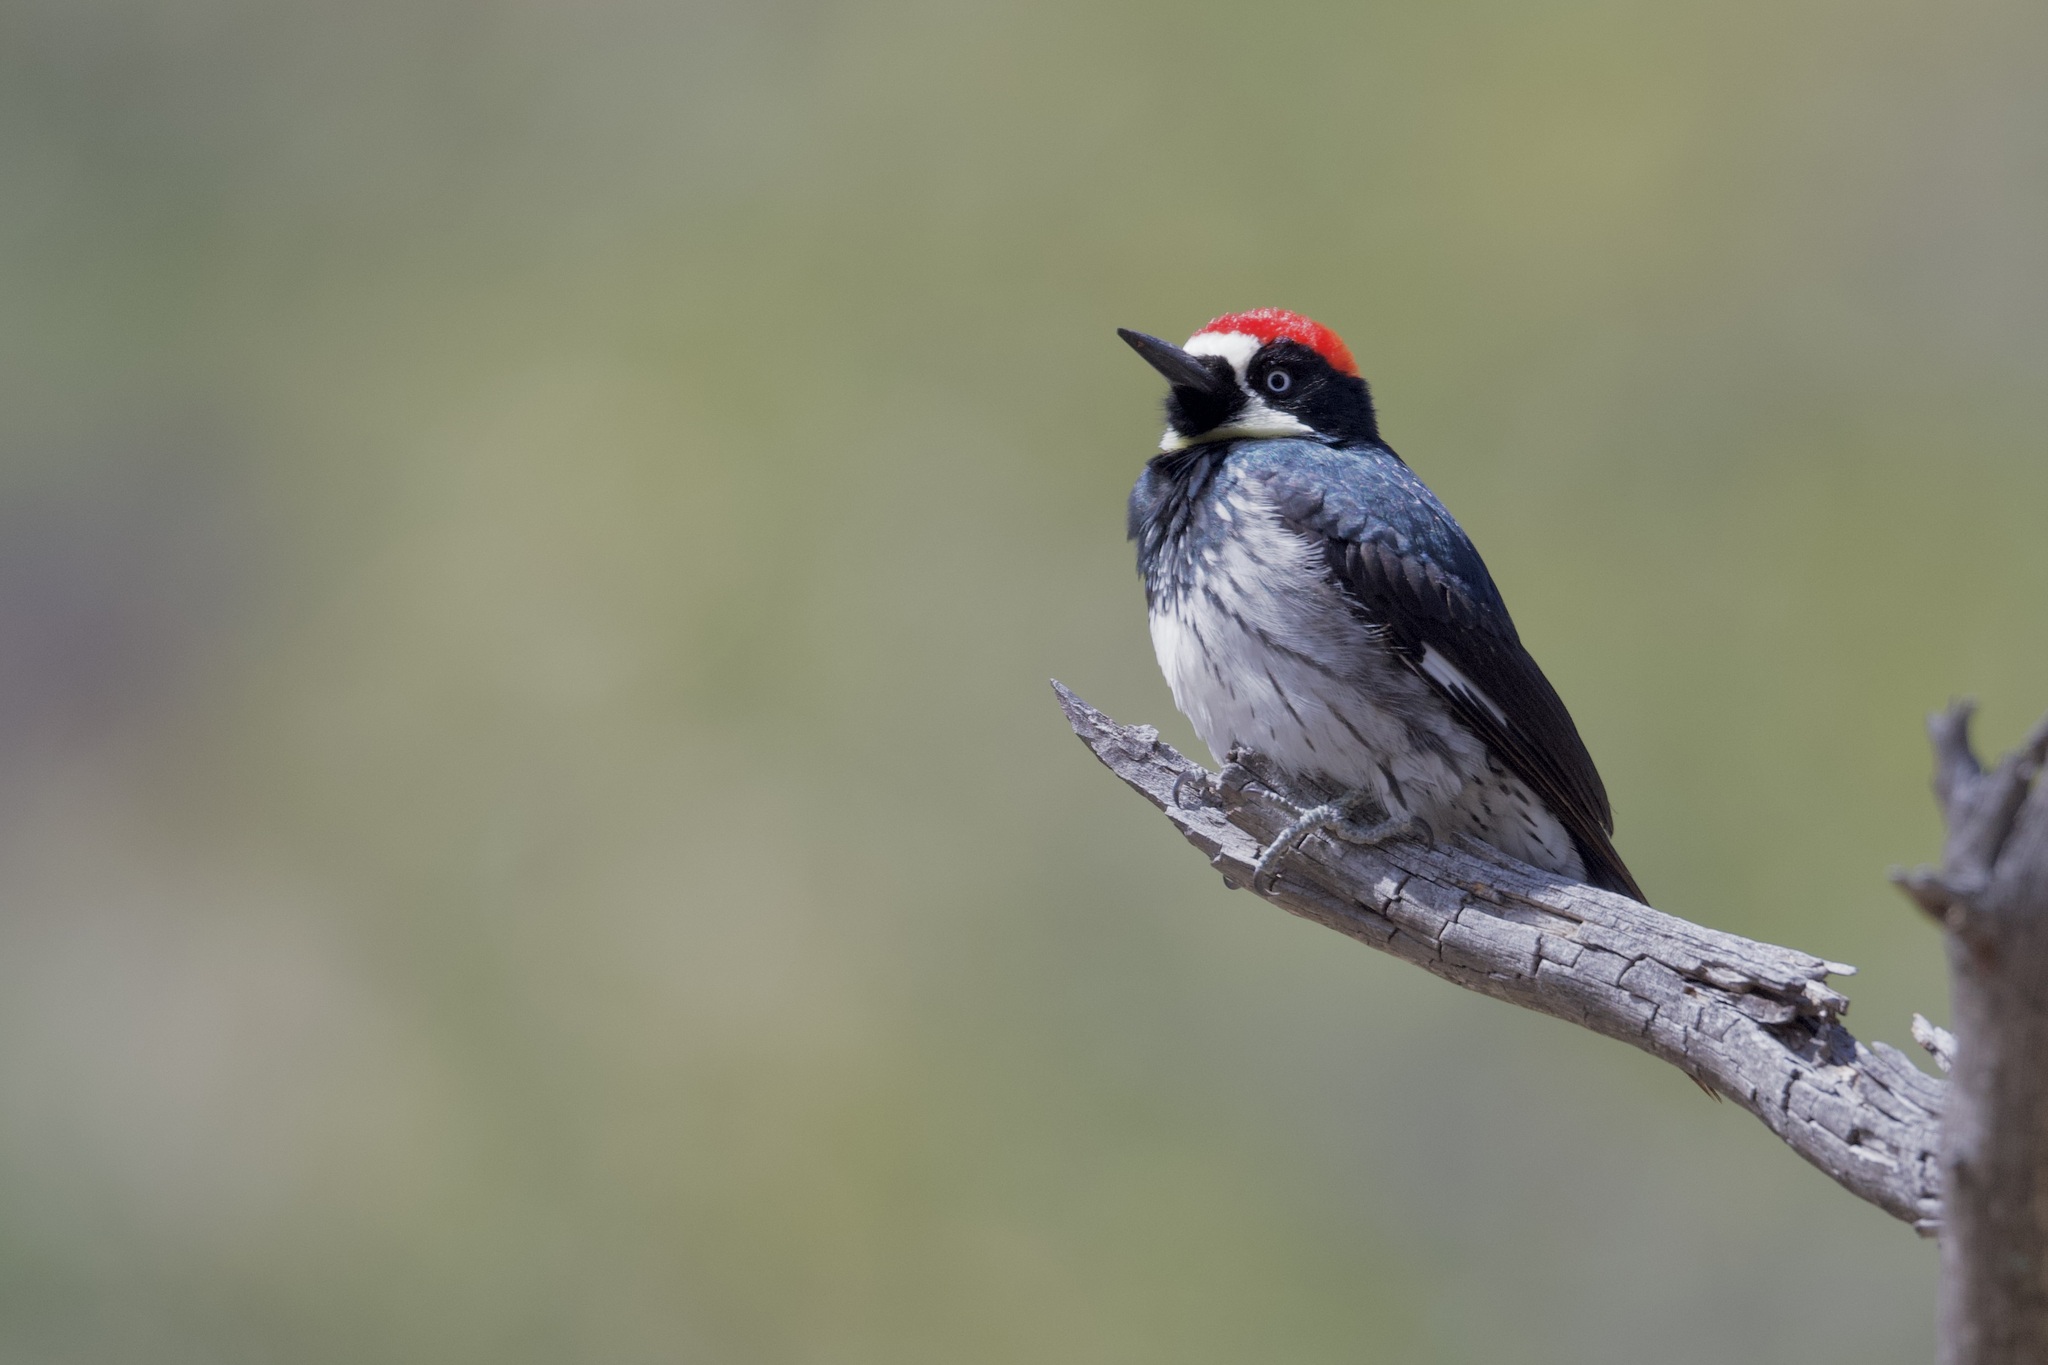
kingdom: Animalia
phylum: Chordata
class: Aves
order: Piciformes
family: Picidae
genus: Melanerpes
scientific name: Melanerpes formicivorus
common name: Acorn woodpecker
